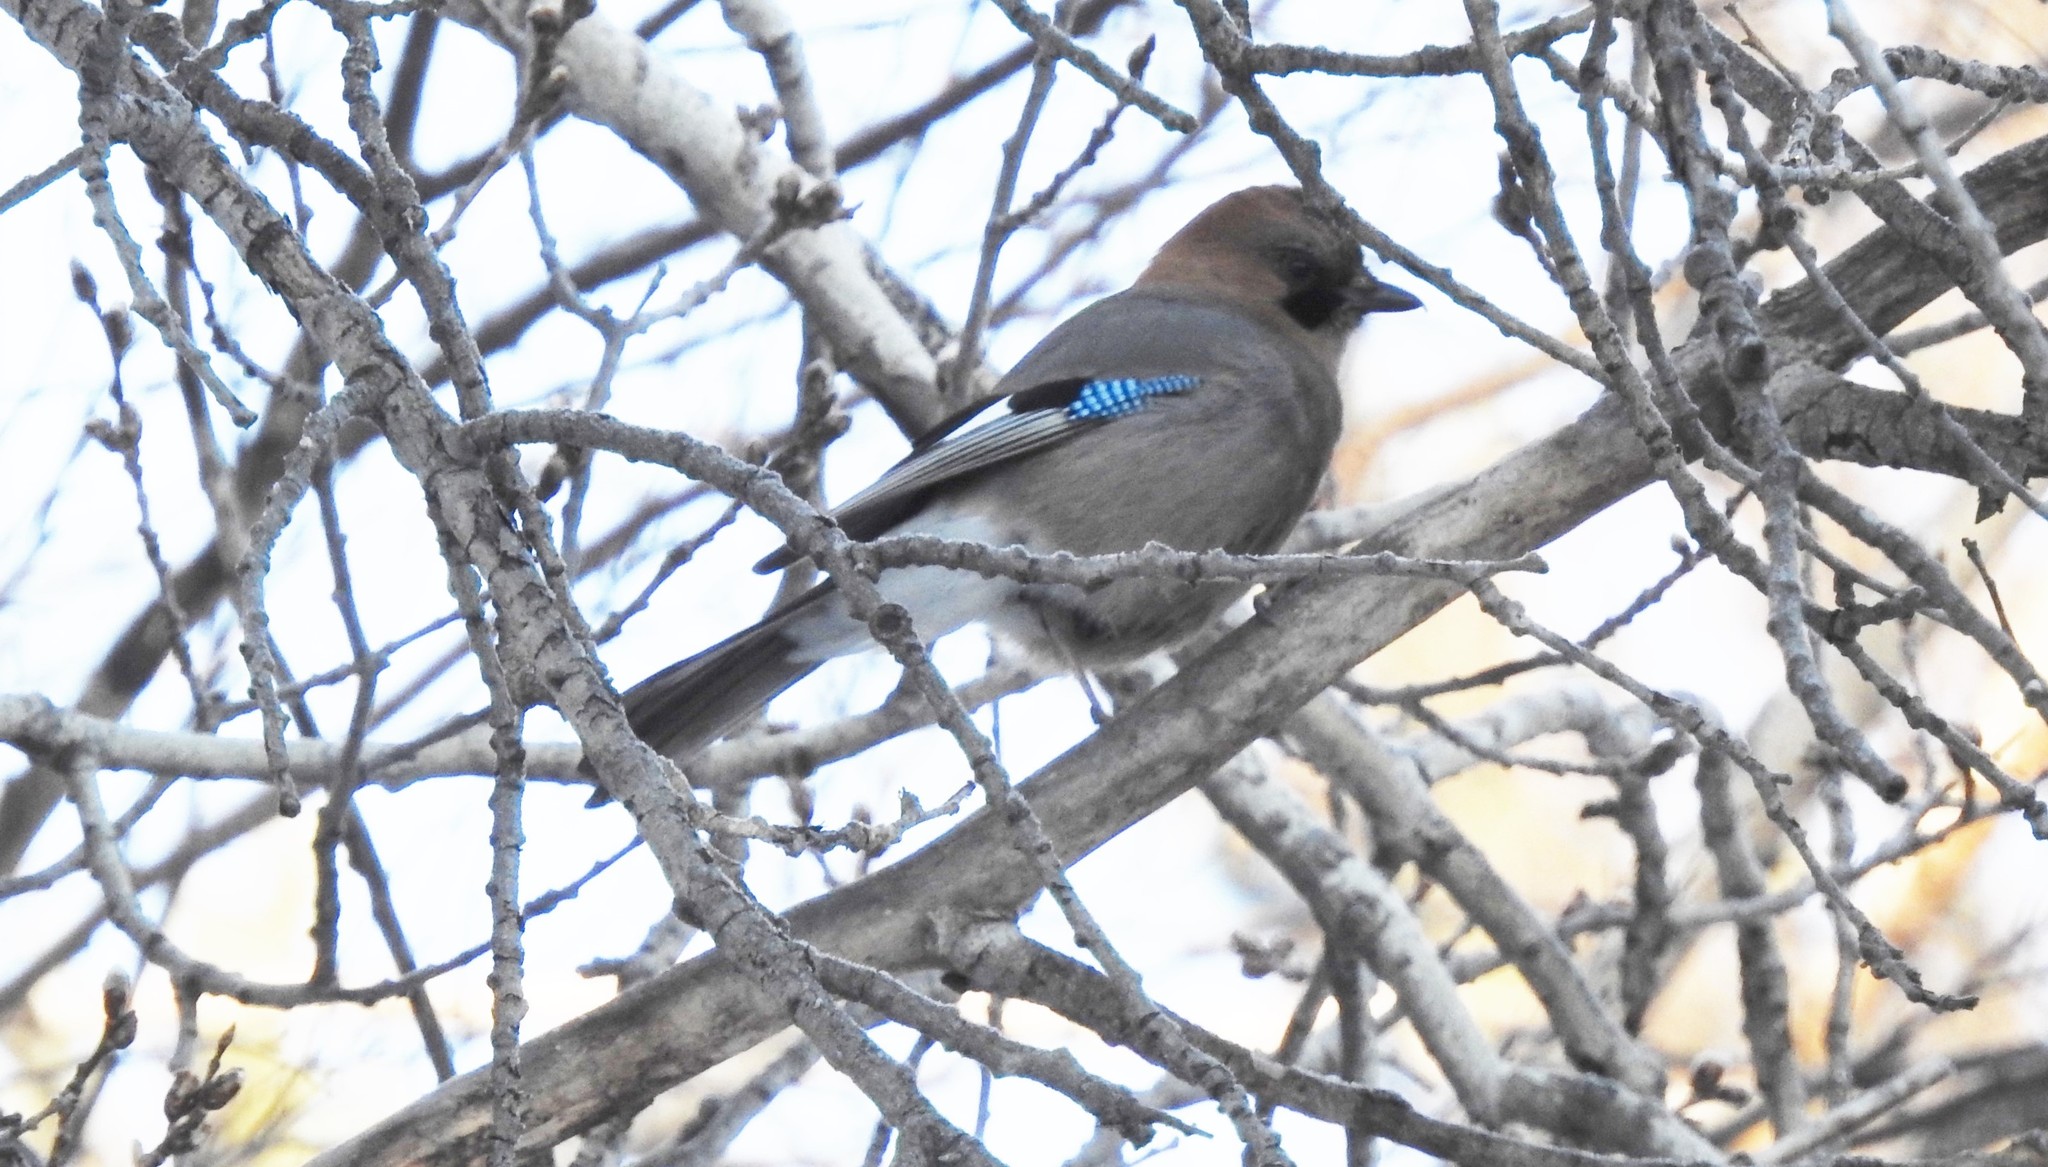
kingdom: Animalia
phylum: Chordata
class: Aves
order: Passeriformes
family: Corvidae
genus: Garrulus
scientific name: Garrulus glandarius
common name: Eurasian jay
